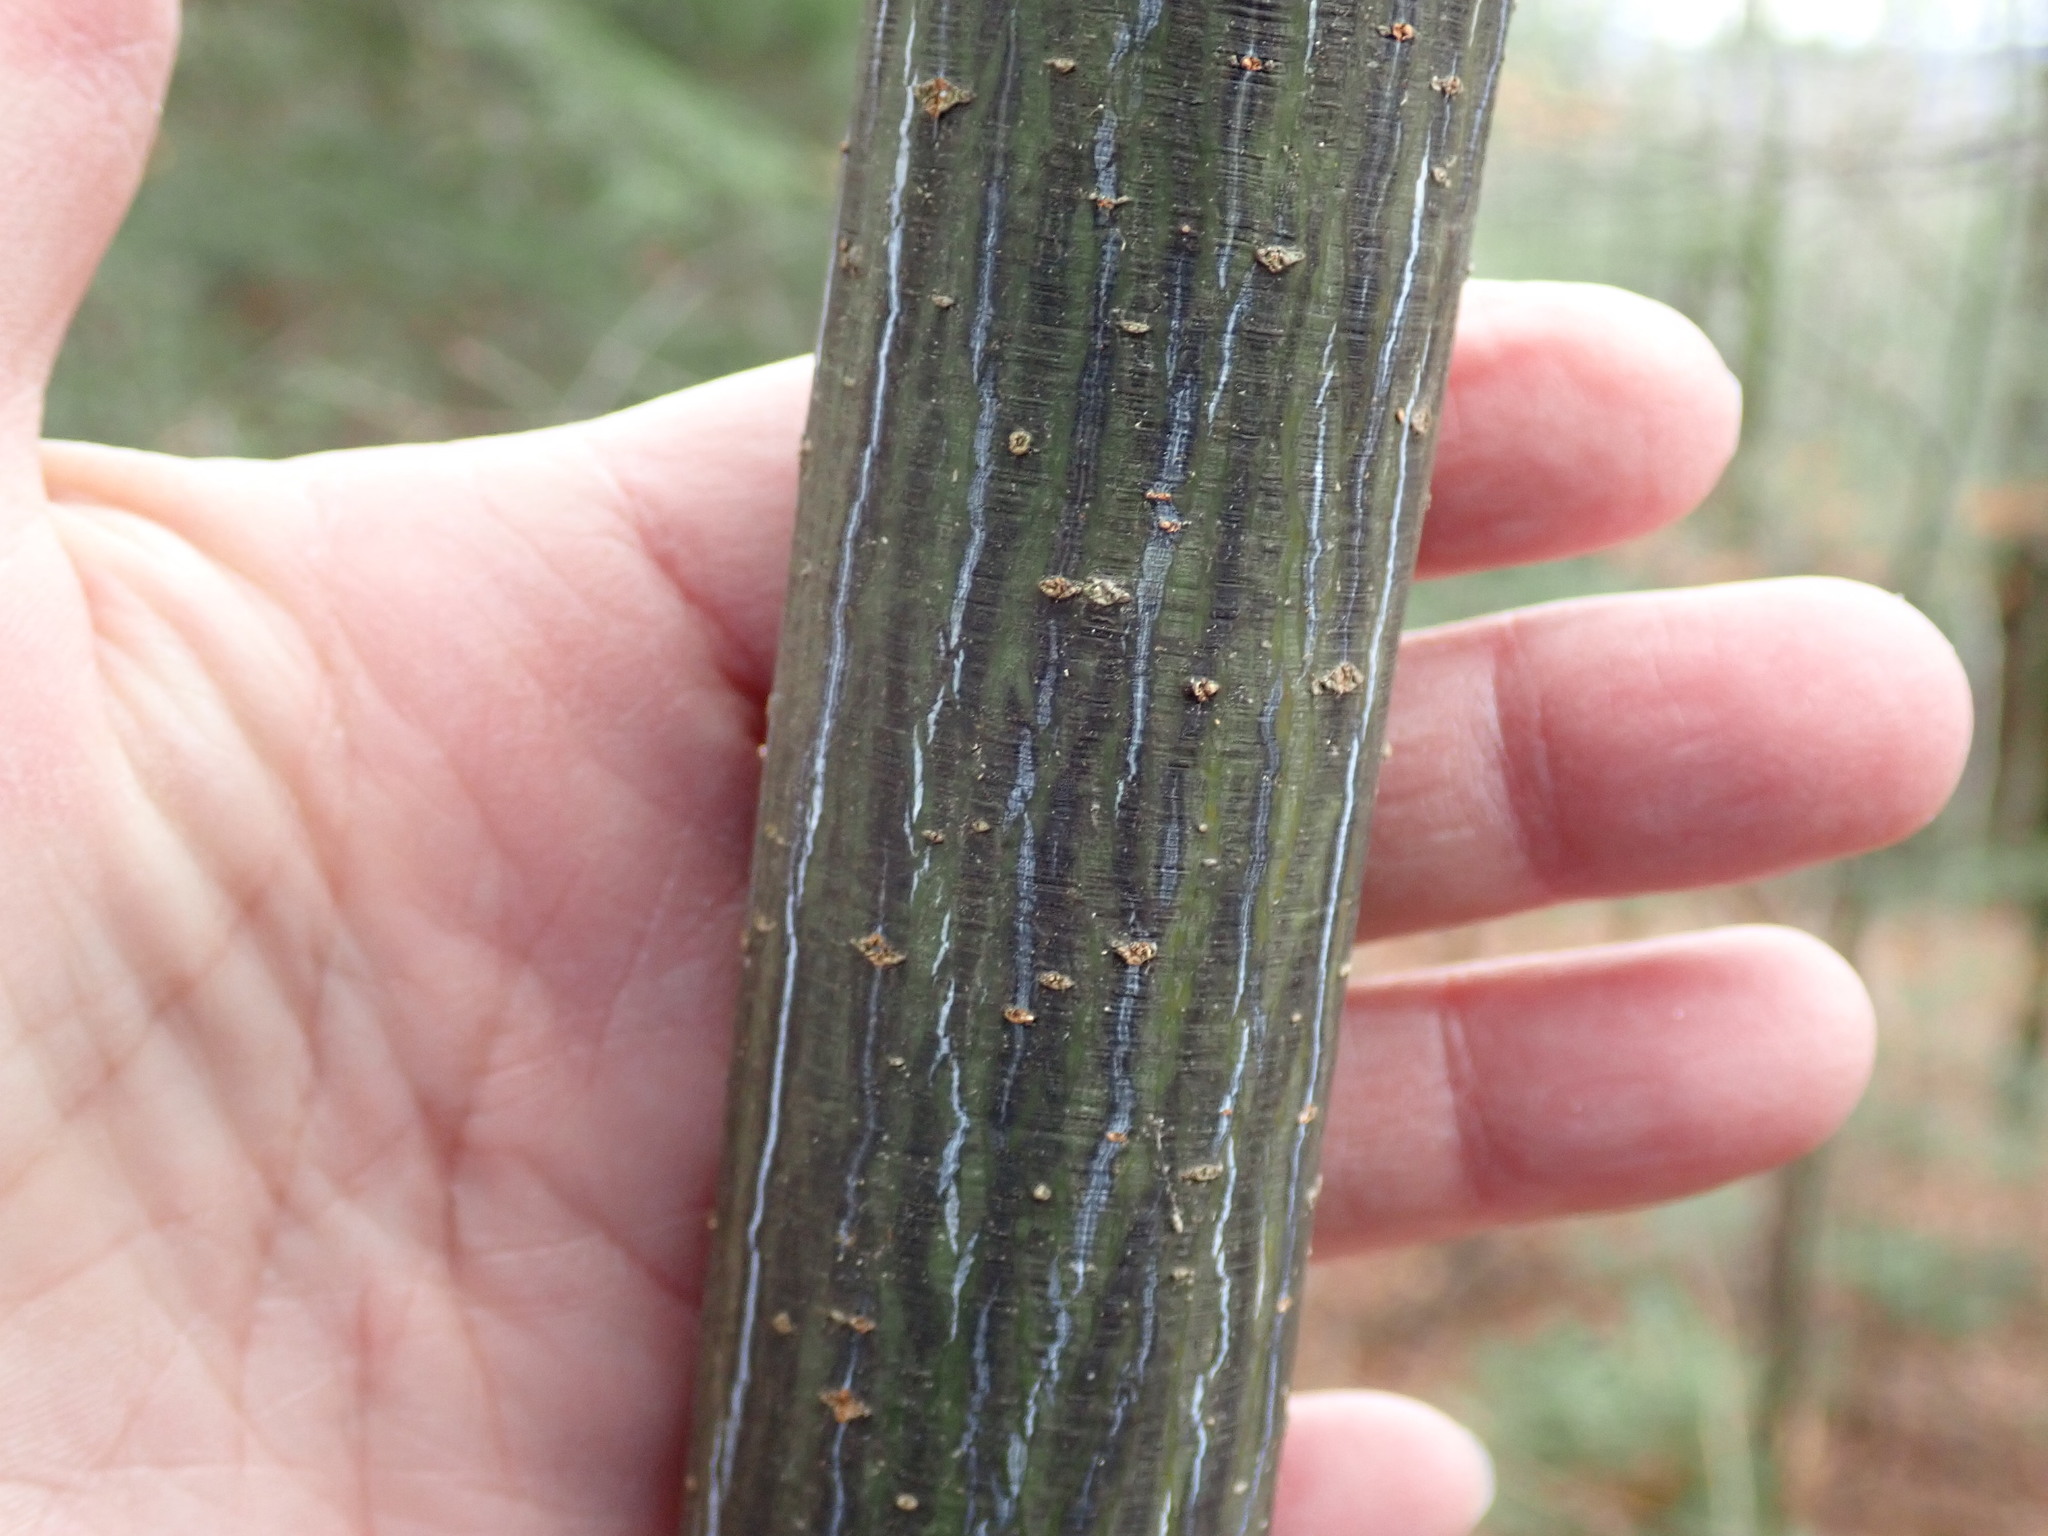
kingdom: Plantae
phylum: Tracheophyta
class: Magnoliopsida
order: Sapindales
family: Sapindaceae
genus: Acer
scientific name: Acer pensylvanicum
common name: Moosewood
